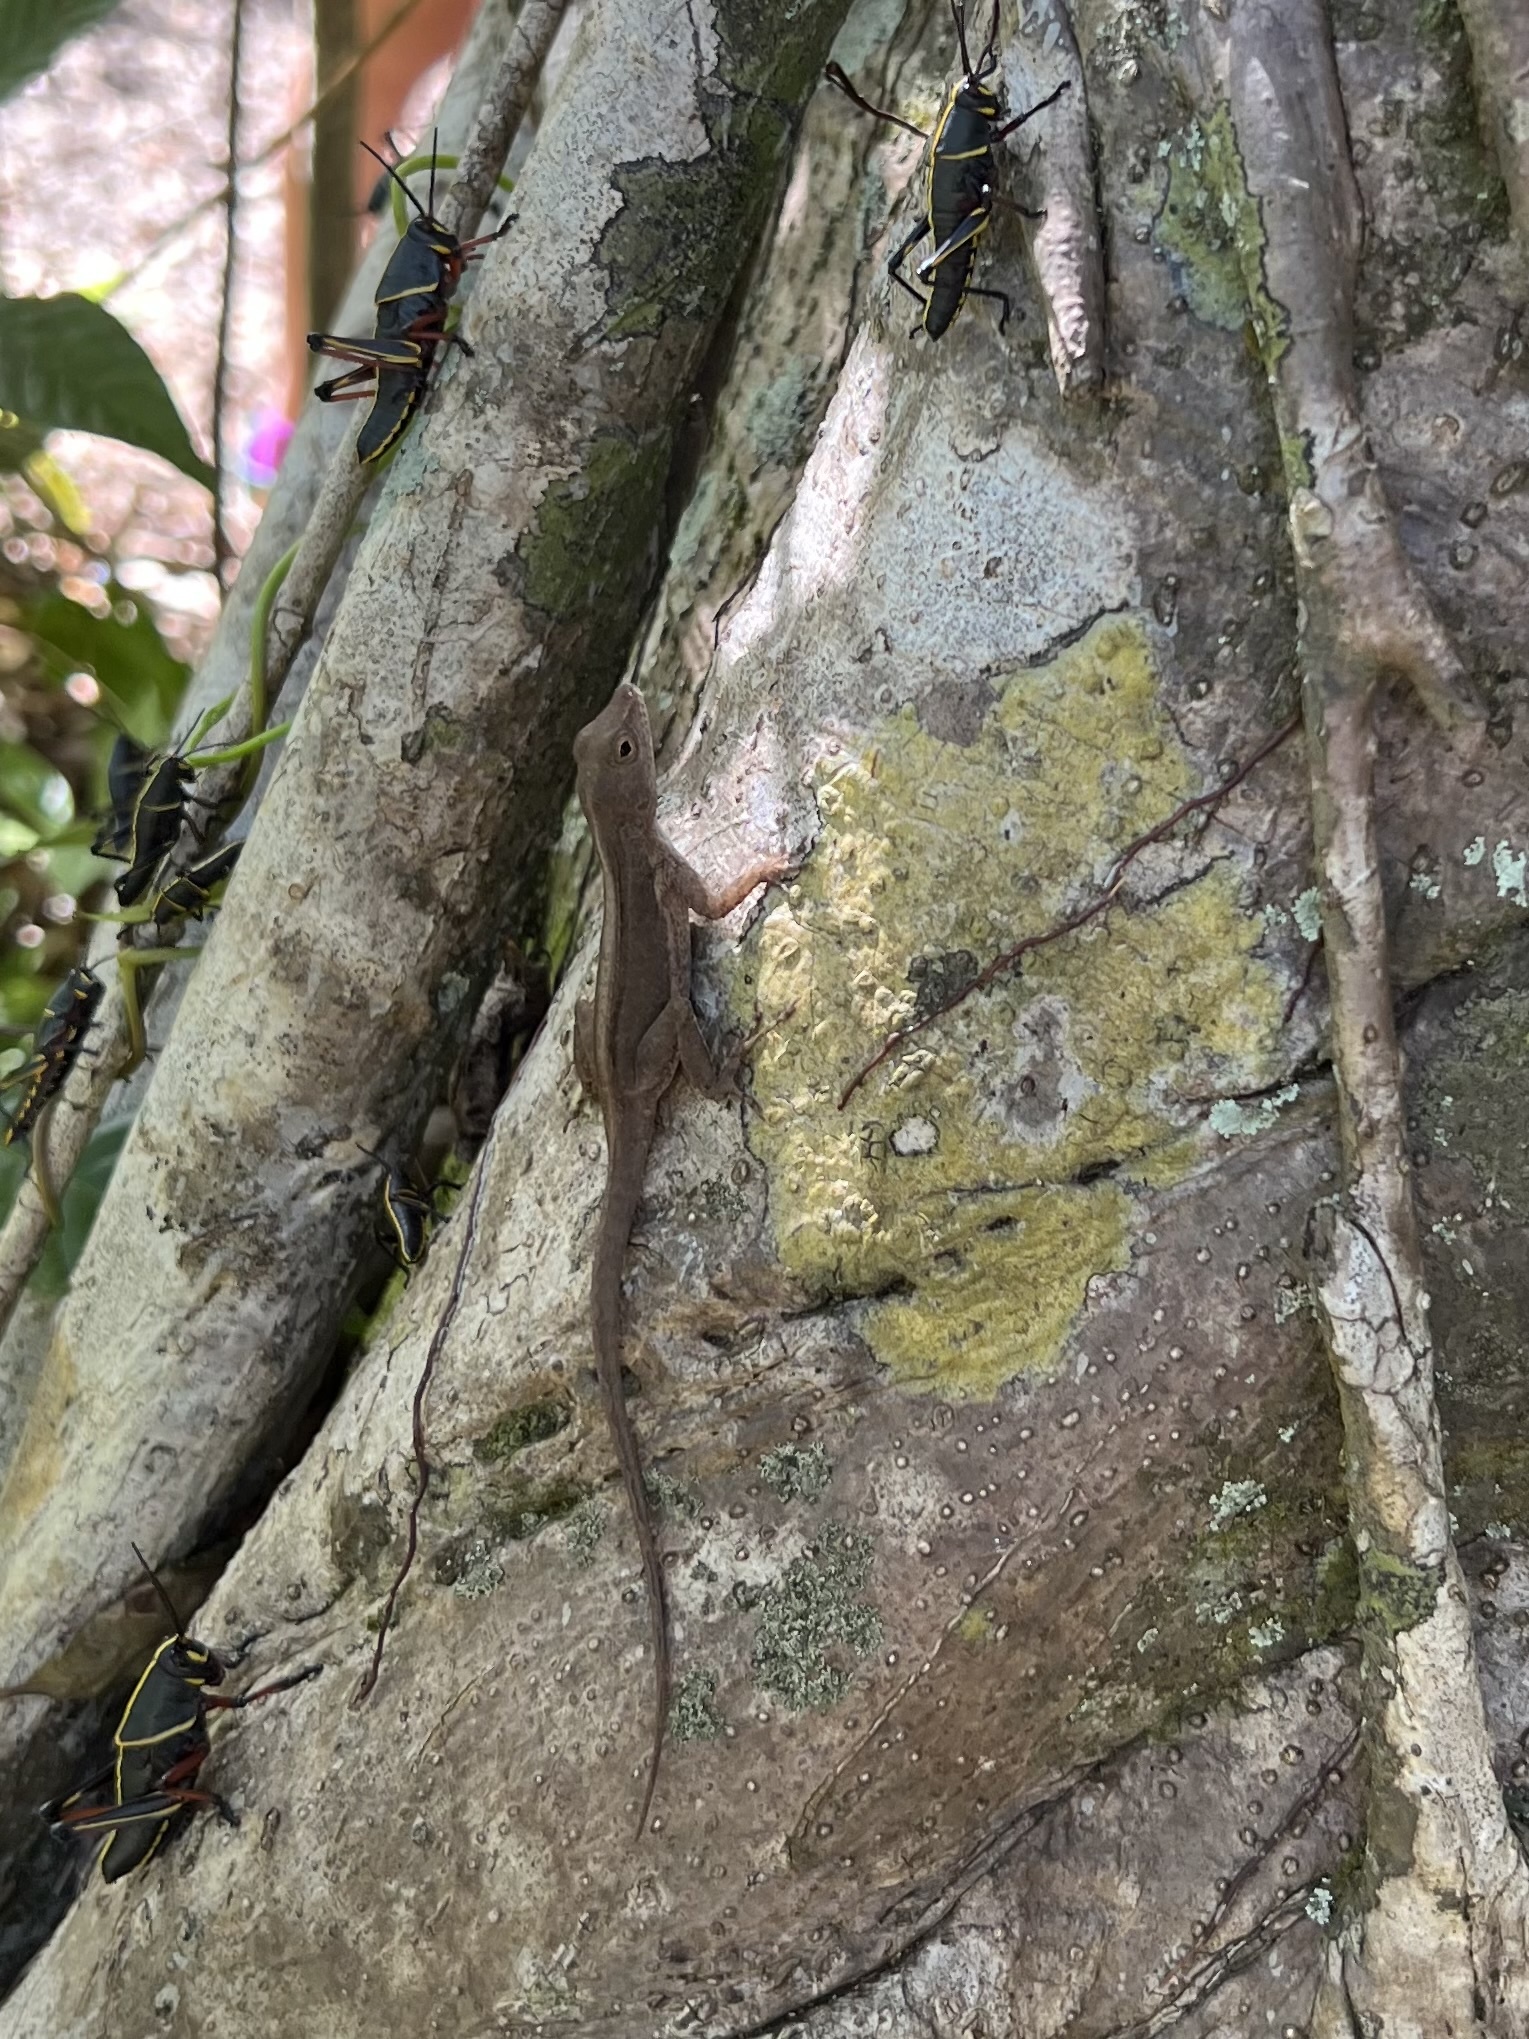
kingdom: Animalia
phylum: Chordata
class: Squamata
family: Dactyloidae
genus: Anolis
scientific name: Anolis cristatellus
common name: Crested anole
